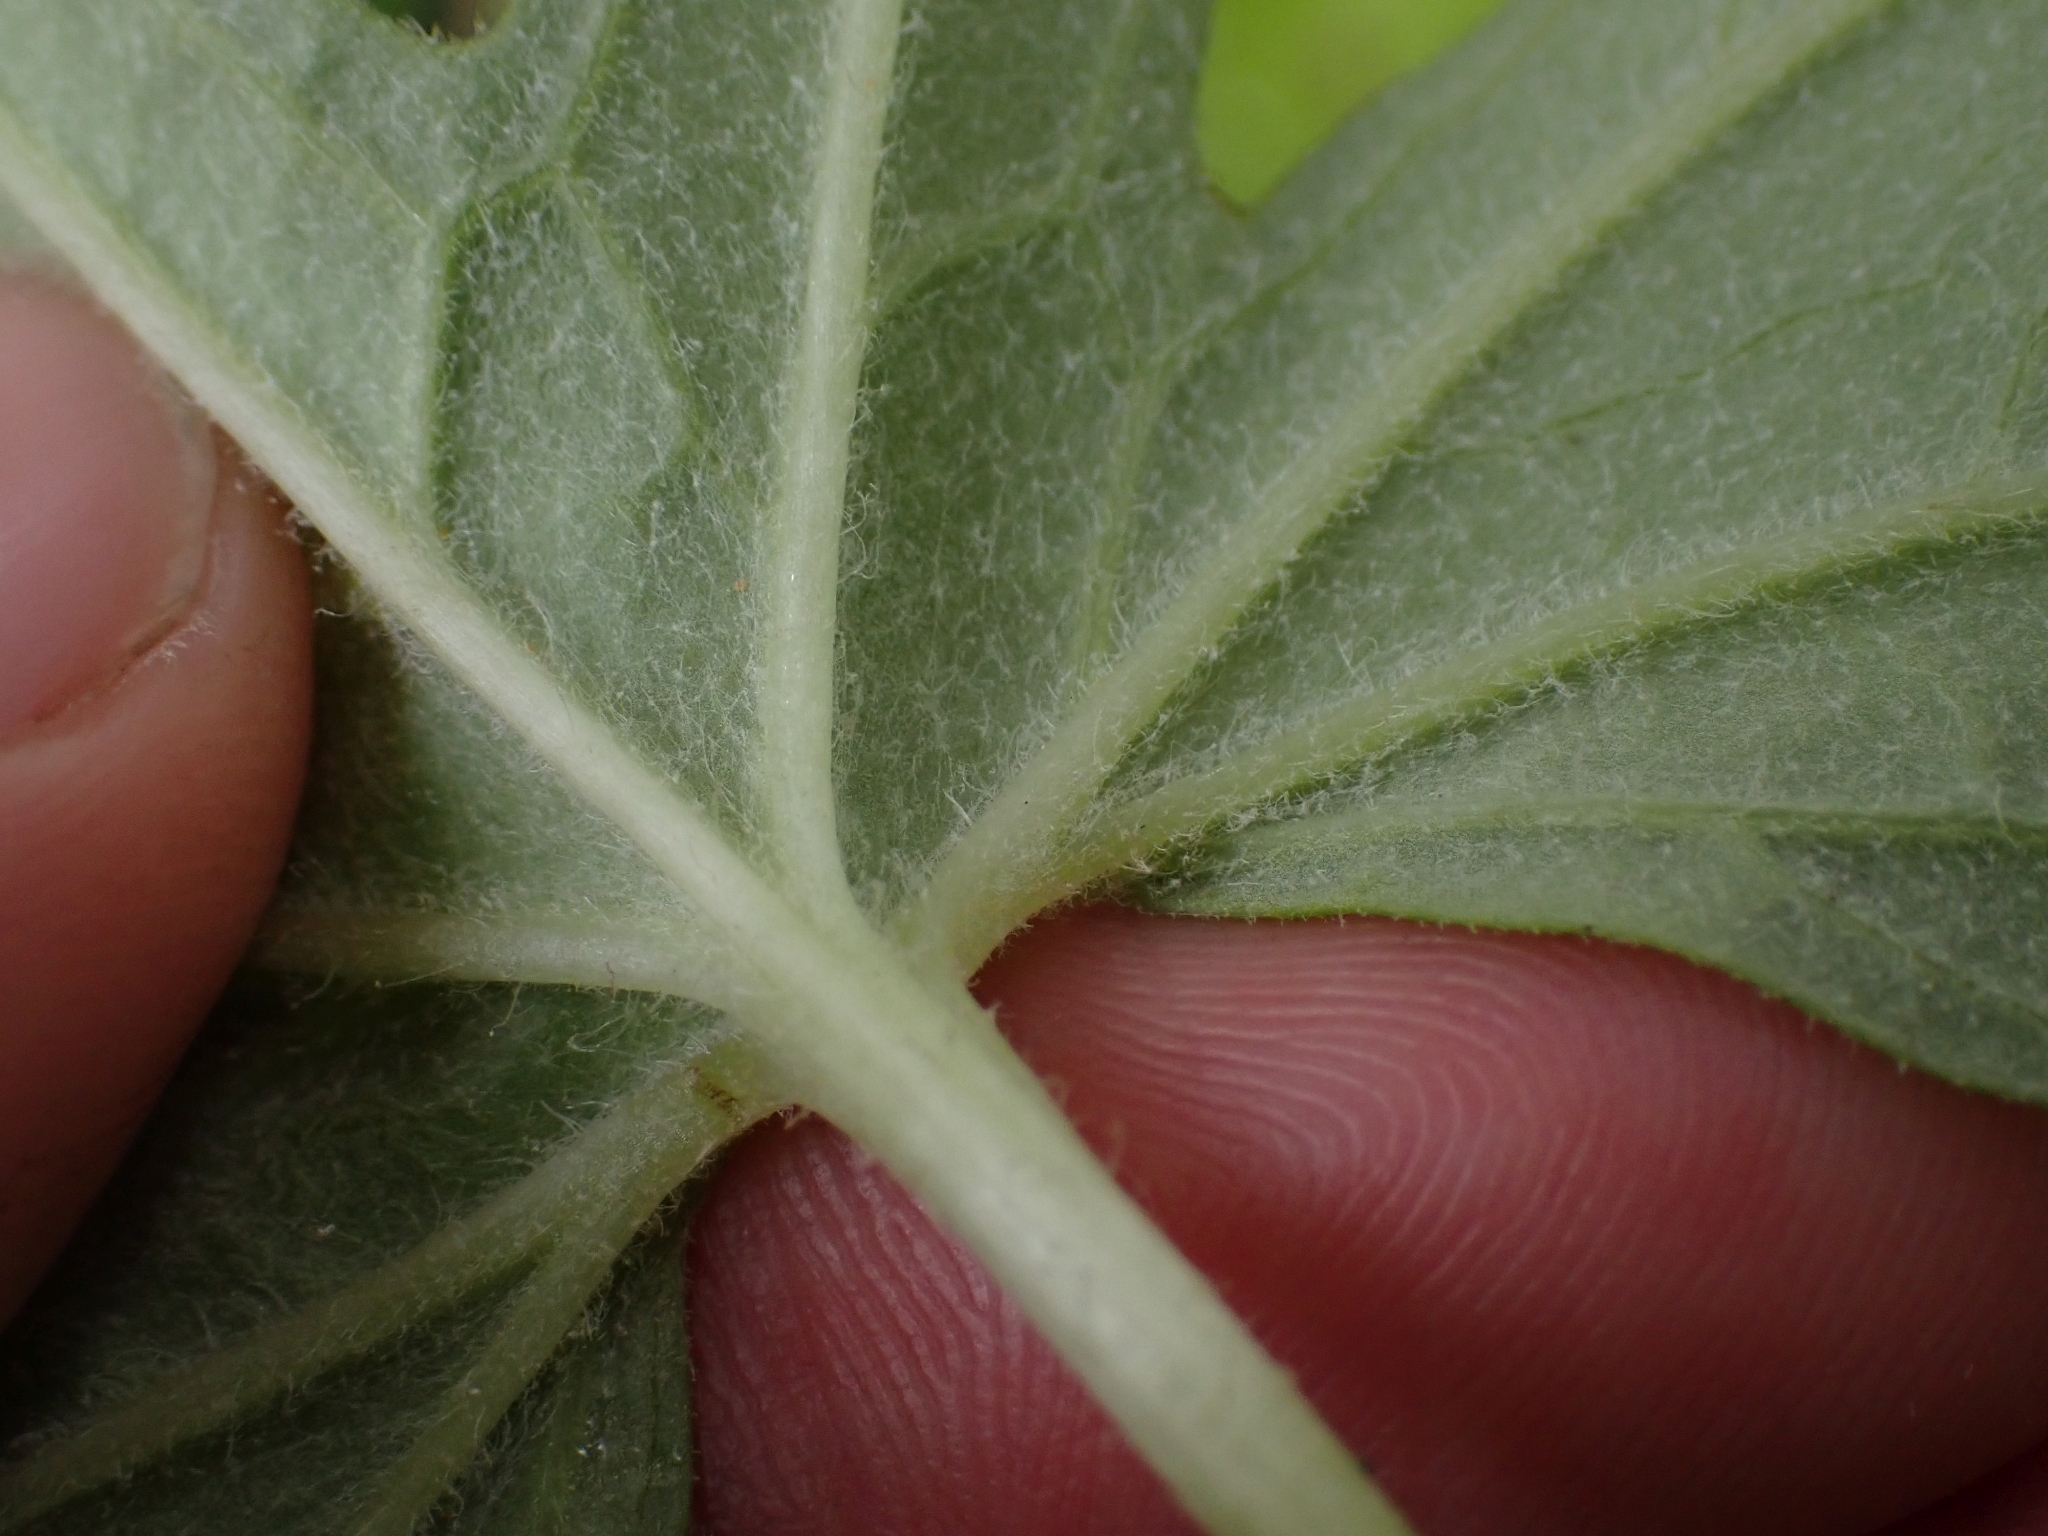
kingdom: Plantae
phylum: Tracheophyta
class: Magnoliopsida
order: Asterales
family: Asteraceae
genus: Petasites
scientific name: Petasites frigidus
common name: Arctic butterbur
